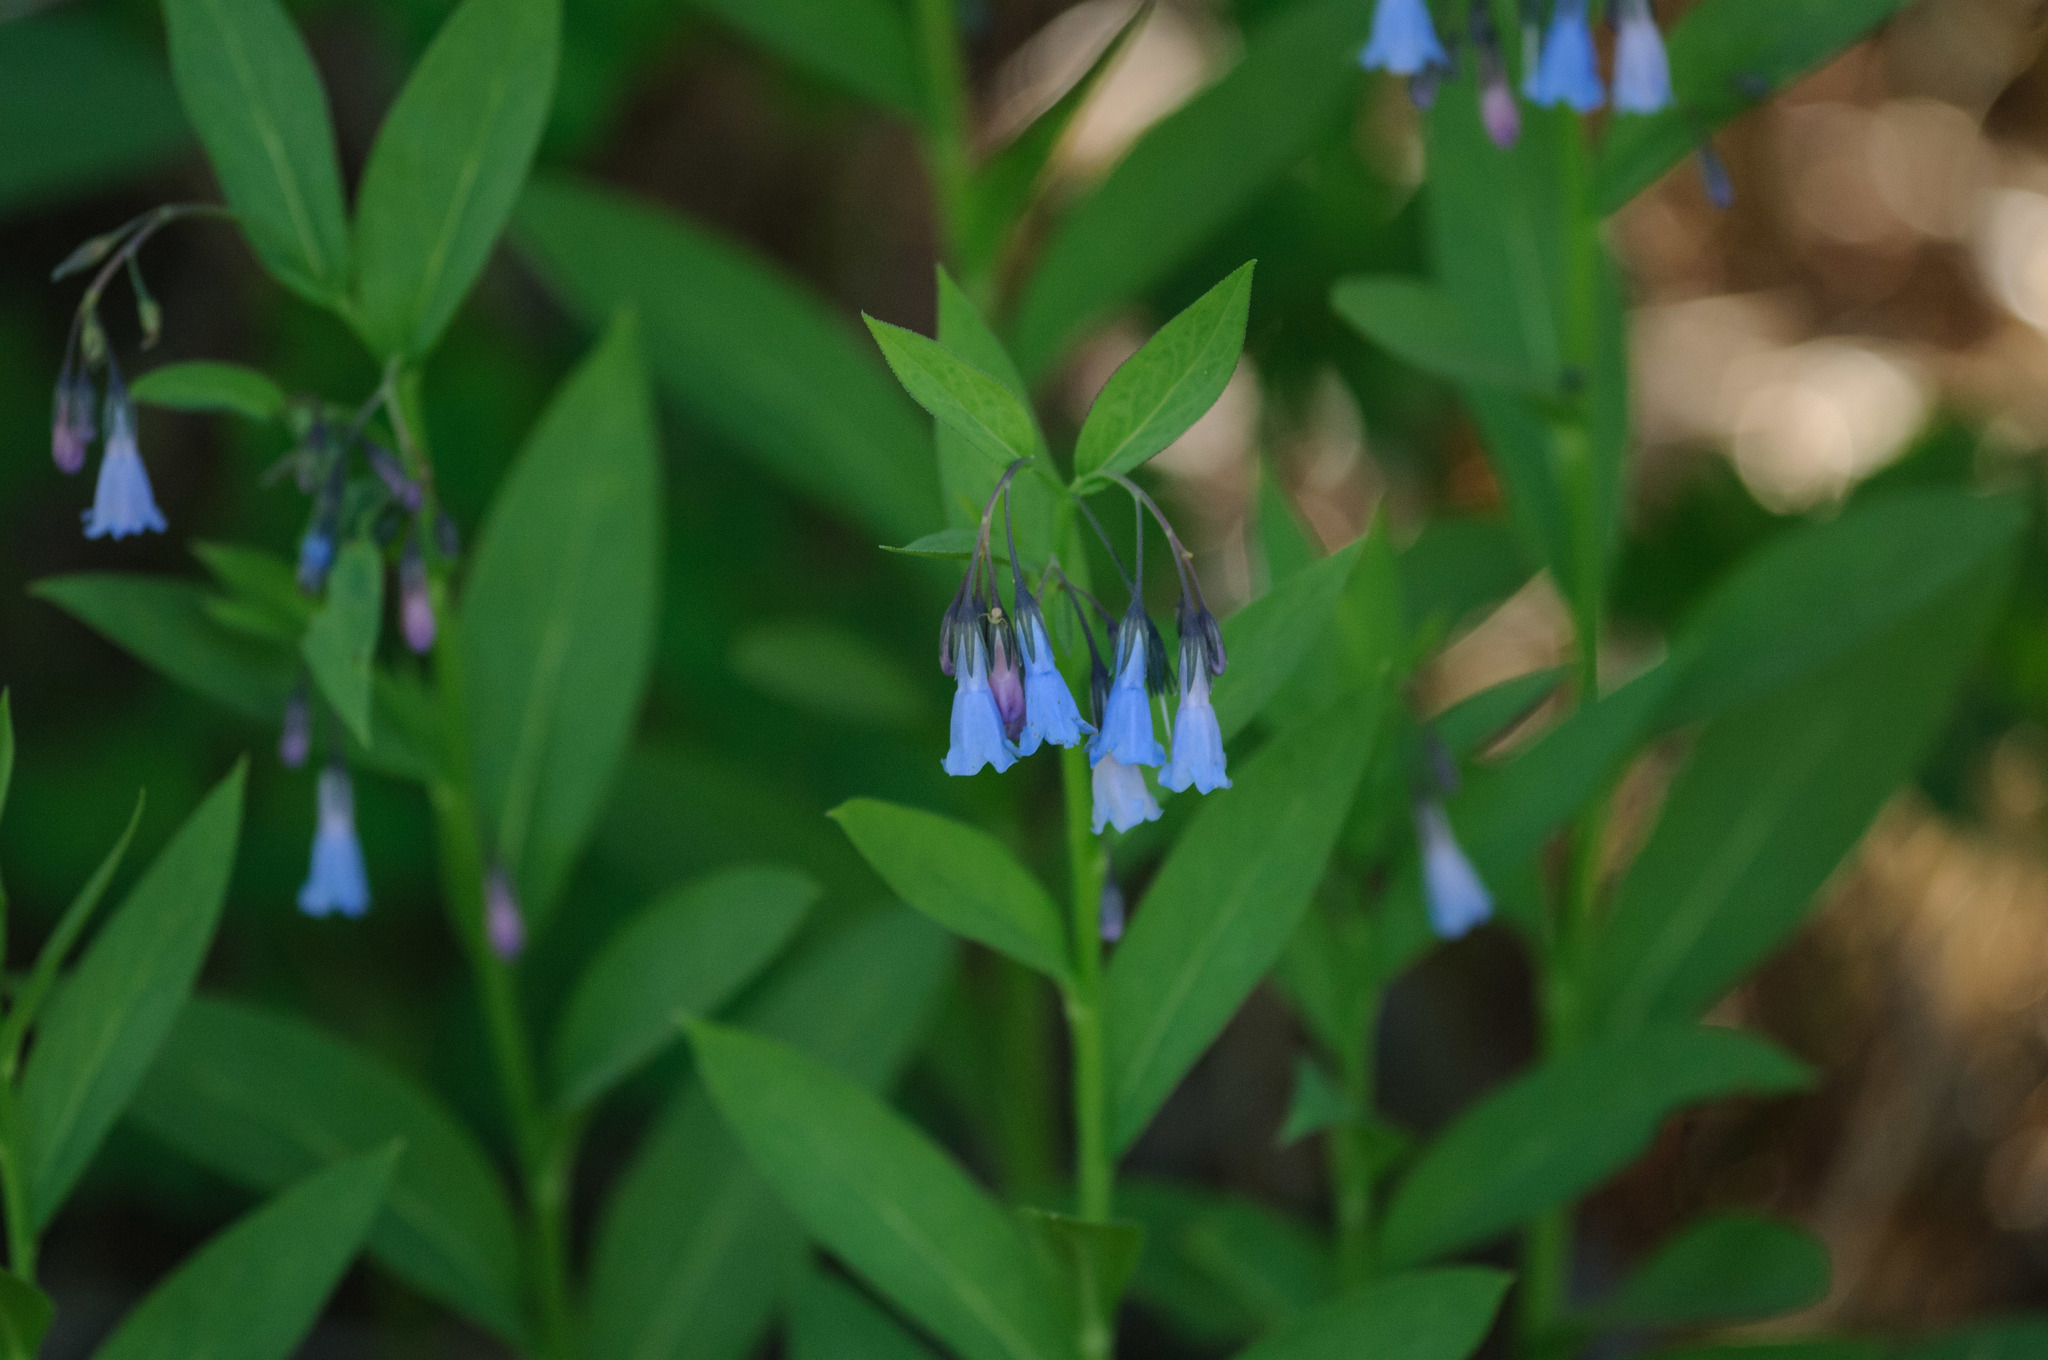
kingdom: Plantae
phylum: Tracheophyta
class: Magnoliopsida
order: Boraginales
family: Boraginaceae
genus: Mertensia
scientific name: Mertensia ciliata
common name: Tall chiming-bells
